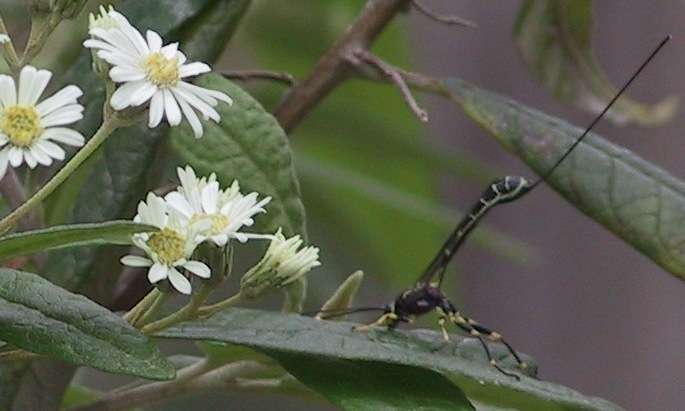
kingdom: Animalia
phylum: Arthropoda
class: Insecta
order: Hymenoptera
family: Ichneumonidae
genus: Certonotus
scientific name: Certonotus nitidulus
